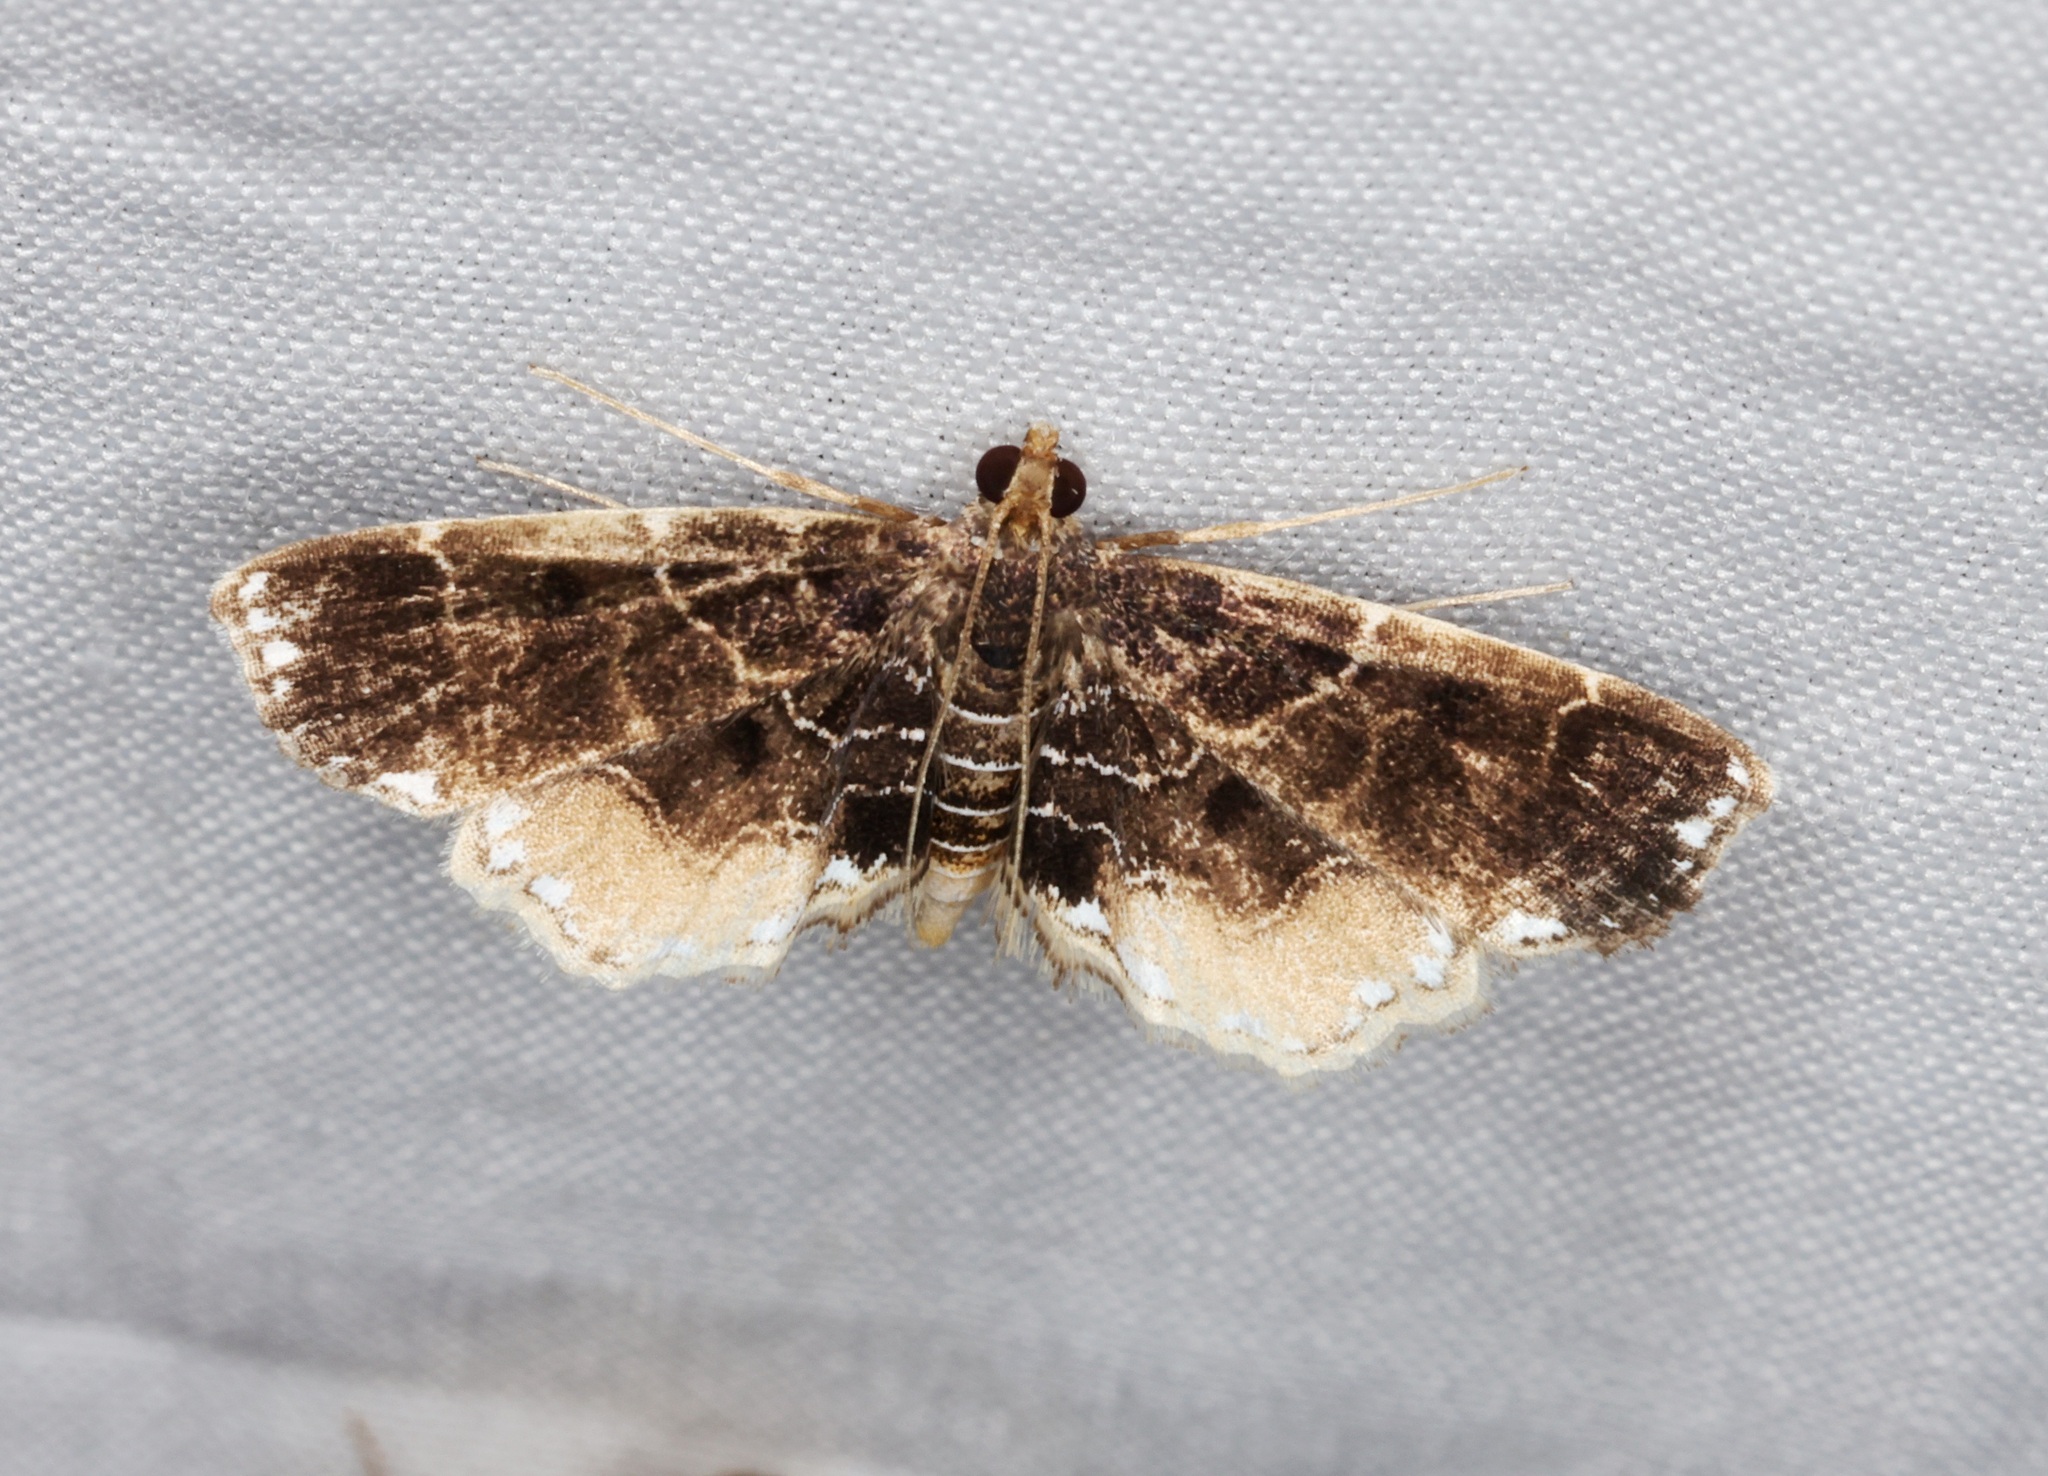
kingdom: Animalia
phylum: Arthropoda
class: Insecta
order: Lepidoptera
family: Crambidae
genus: Thysanoidma
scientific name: Thysanoidma stellata
